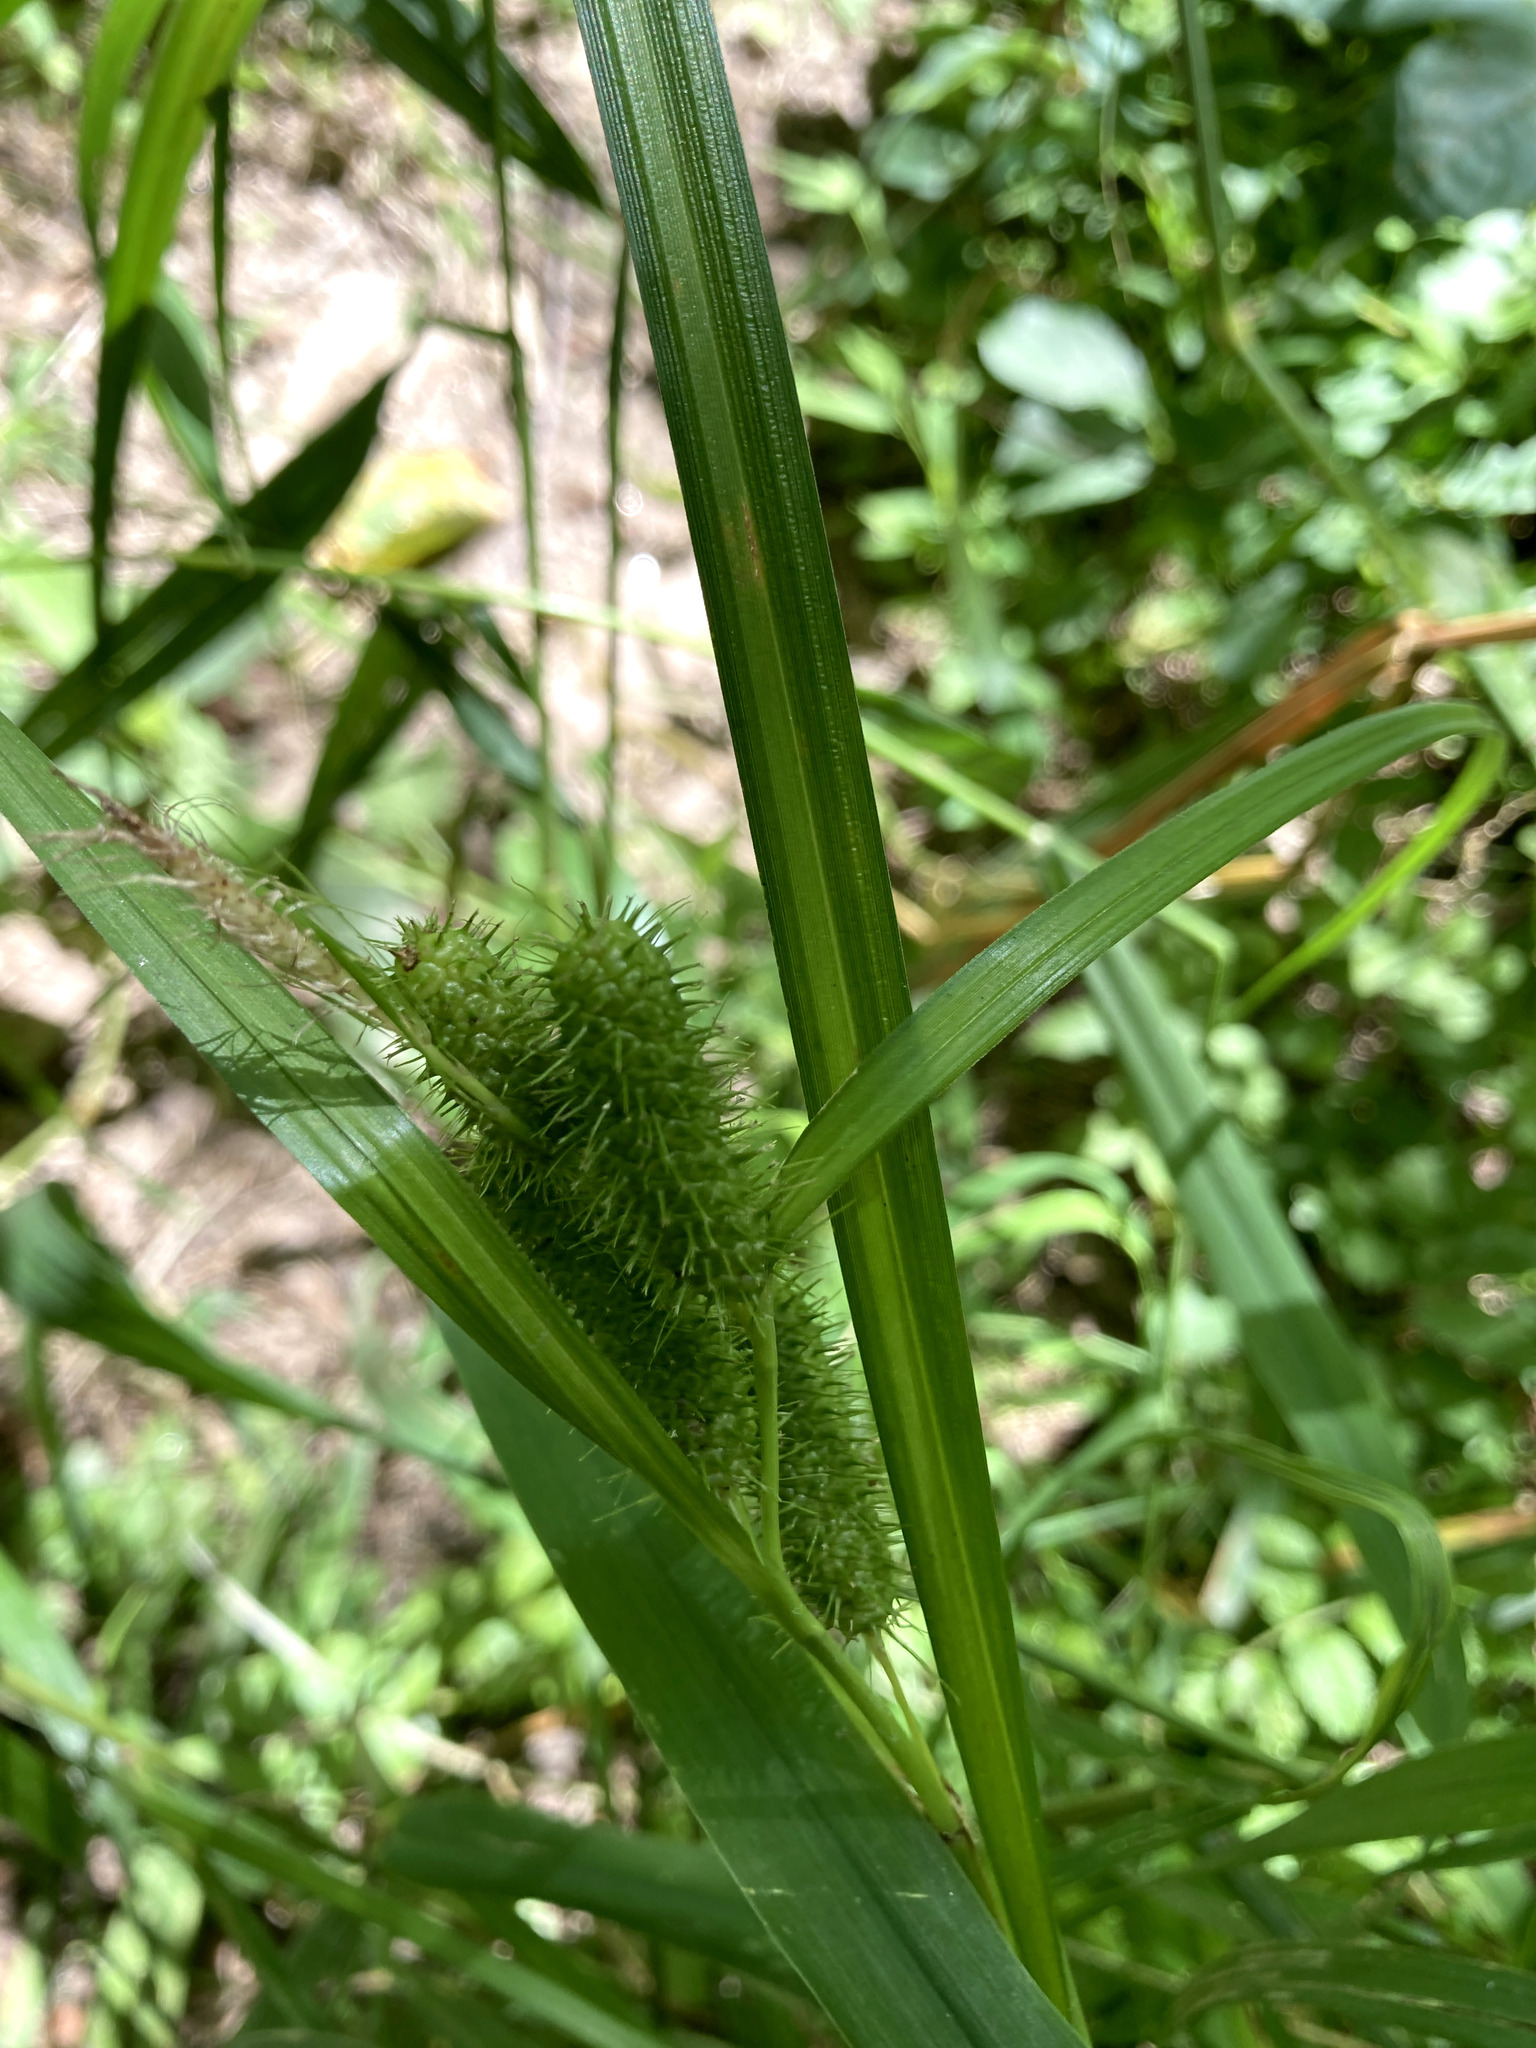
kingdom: Plantae
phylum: Tracheophyta
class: Liliopsida
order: Poales
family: Cyperaceae
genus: Carex
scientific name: Carex frankii
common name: Frank's sedge
